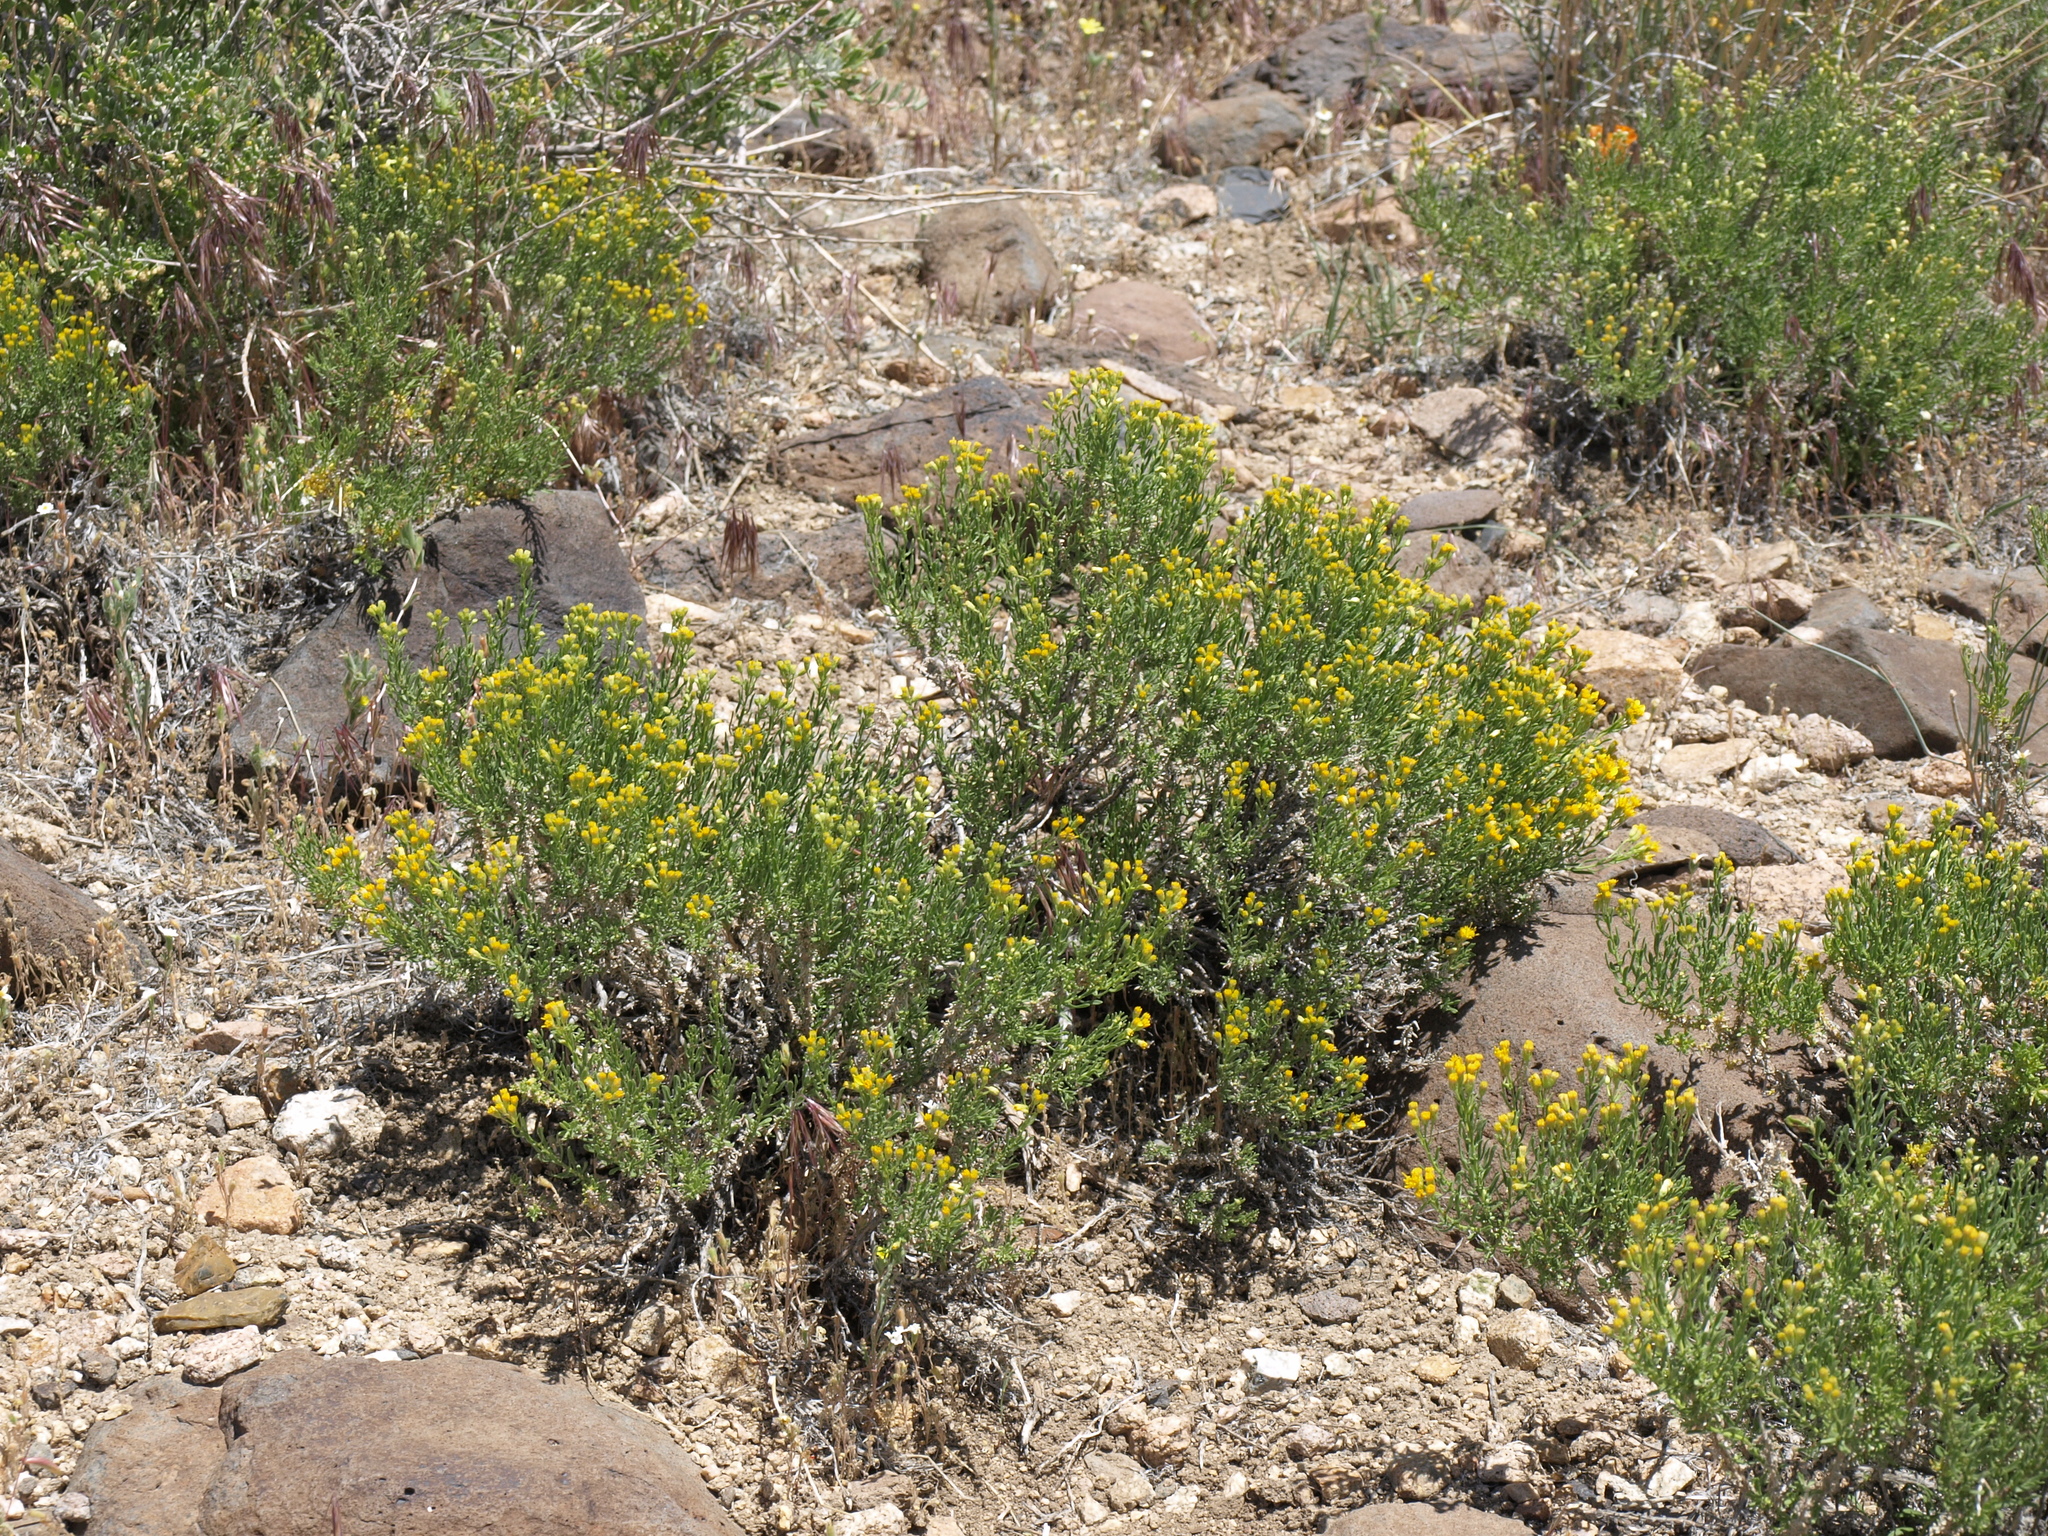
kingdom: Plantae
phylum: Tracheophyta
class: Magnoliopsida
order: Asterales
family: Asteraceae
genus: Ericameria
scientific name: Ericameria cooperi
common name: Cooper's goldenbush
